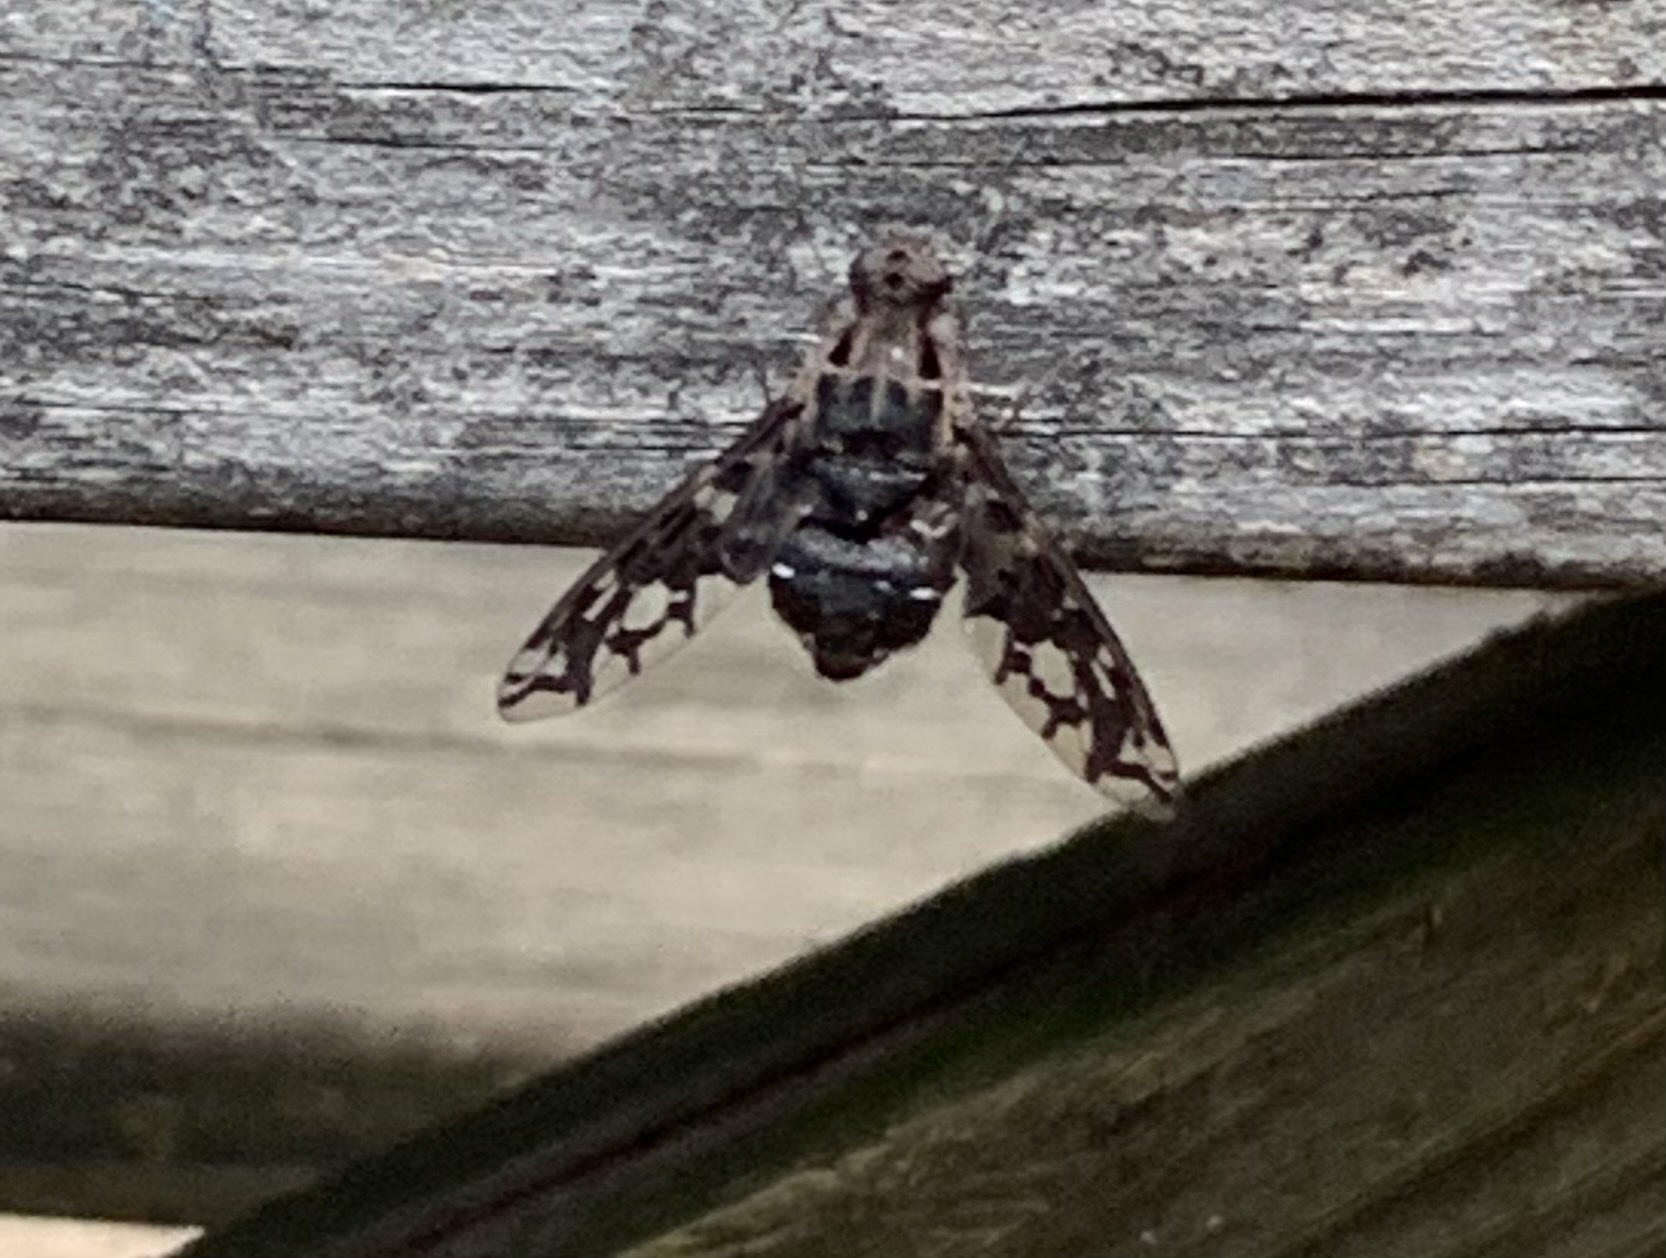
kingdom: Animalia
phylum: Arthropoda
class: Insecta
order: Diptera
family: Bombyliidae
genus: Xenox
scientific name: Xenox tigrinus
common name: Tiger bee fly
